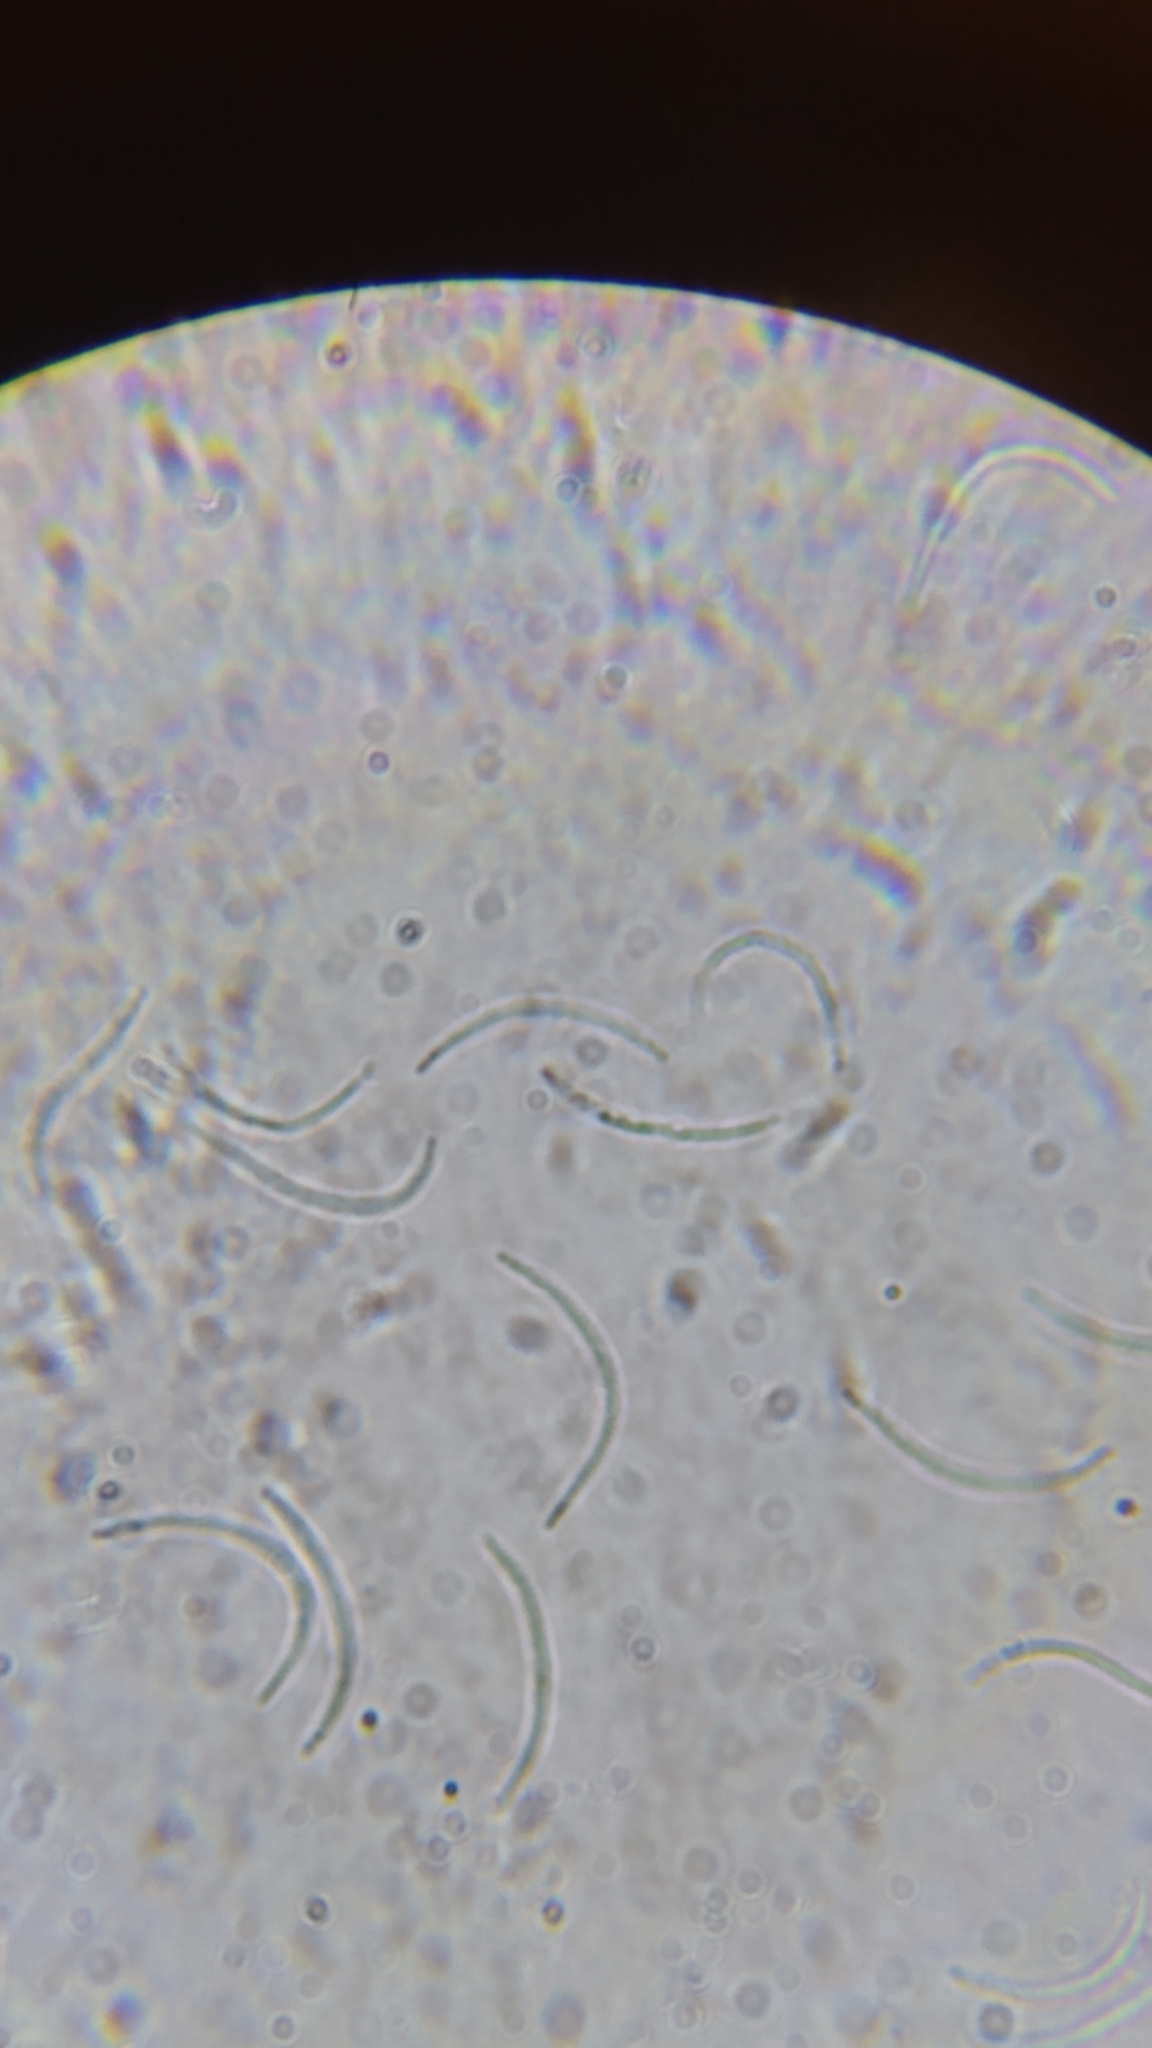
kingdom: Fungi
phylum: Ascomycota
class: Sordariomycetes
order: Diaporthales
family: Valsaceae
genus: Cytospora
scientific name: Cytospora chrysosperma
